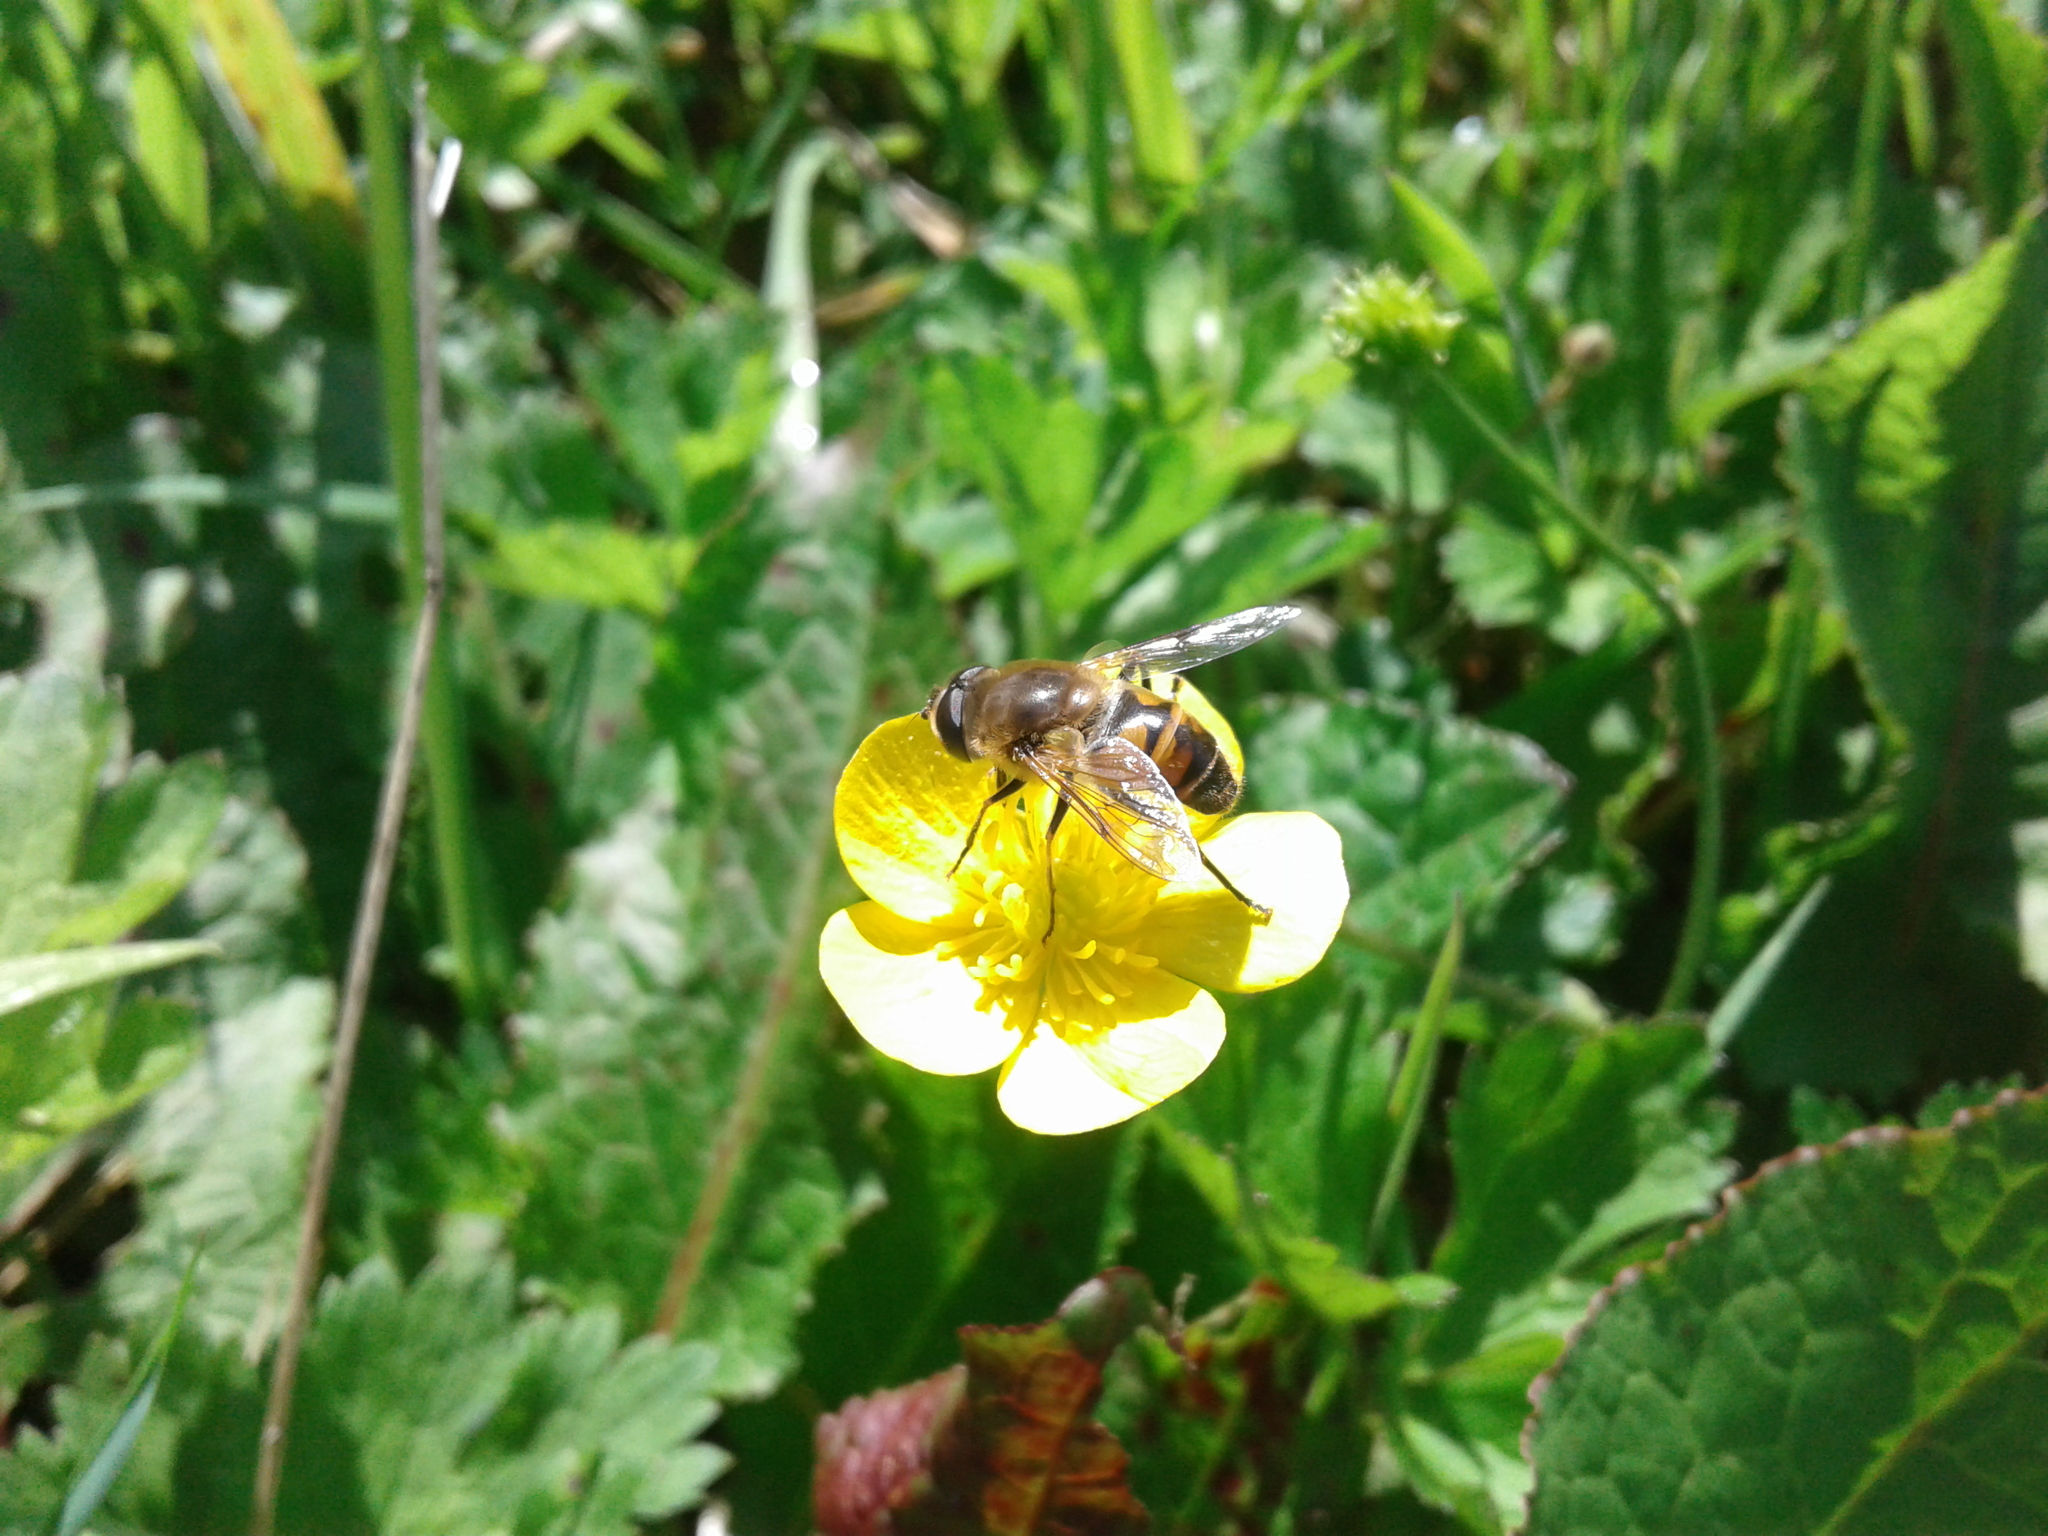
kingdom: Animalia
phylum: Arthropoda
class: Insecta
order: Diptera
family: Syrphidae
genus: Eristalis
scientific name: Eristalis tenax
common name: Drone fly
